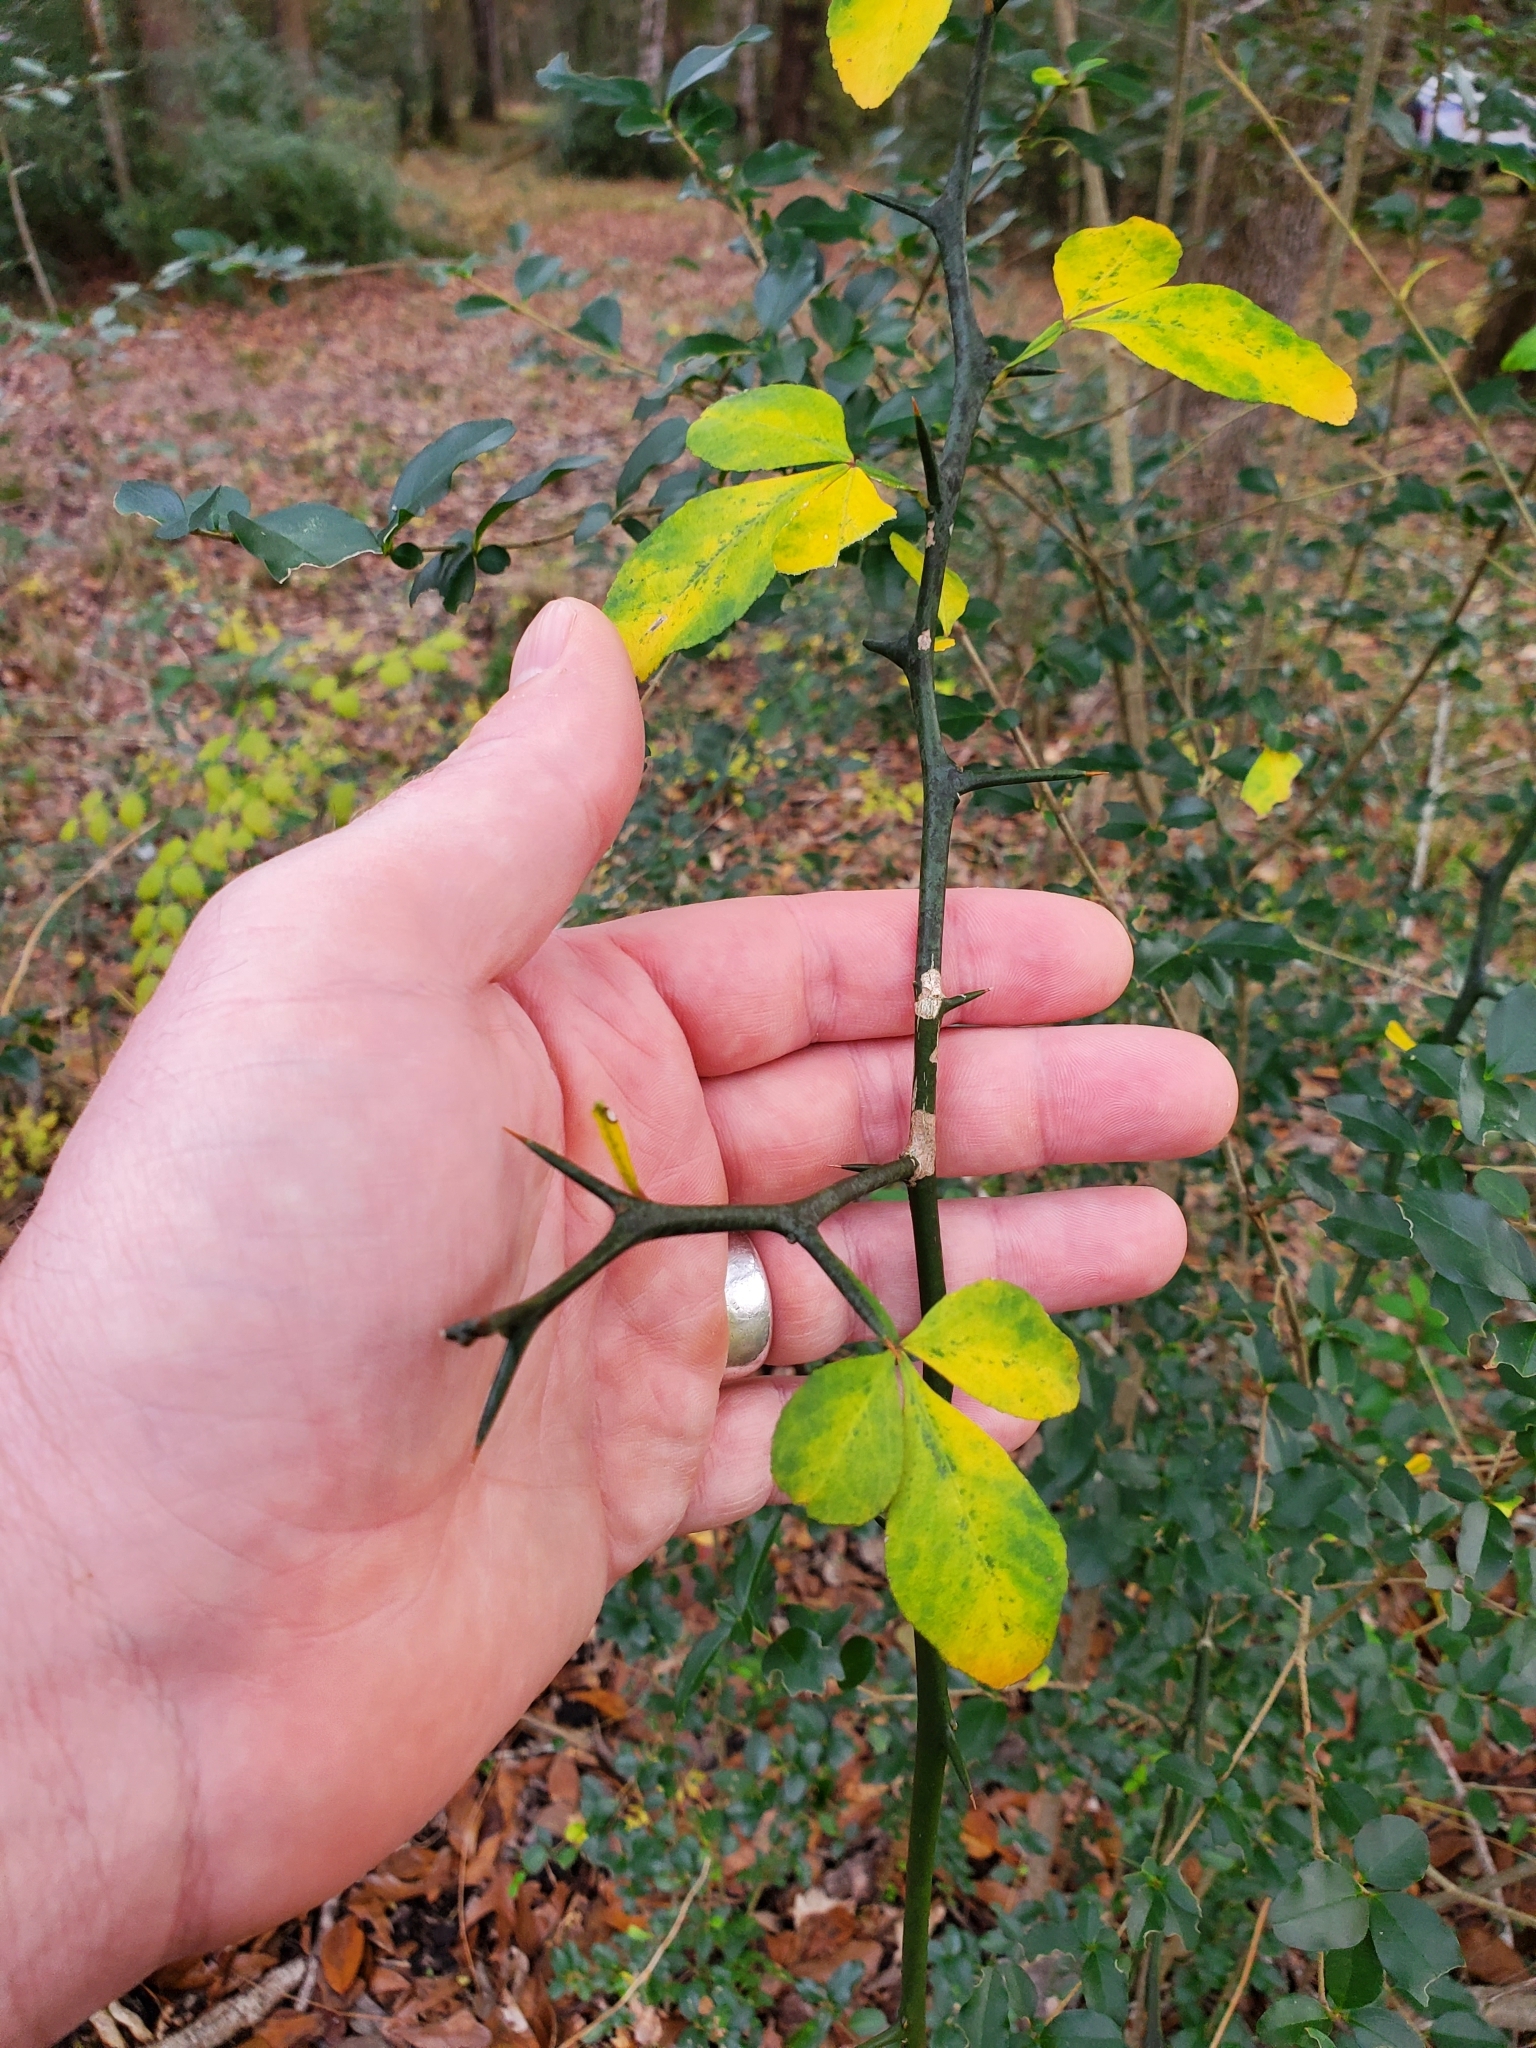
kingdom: Plantae
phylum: Tracheophyta
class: Magnoliopsida
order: Sapindales
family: Rutaceae
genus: Citrus
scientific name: Citrus trifoliata
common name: Japanese bitter-orange
